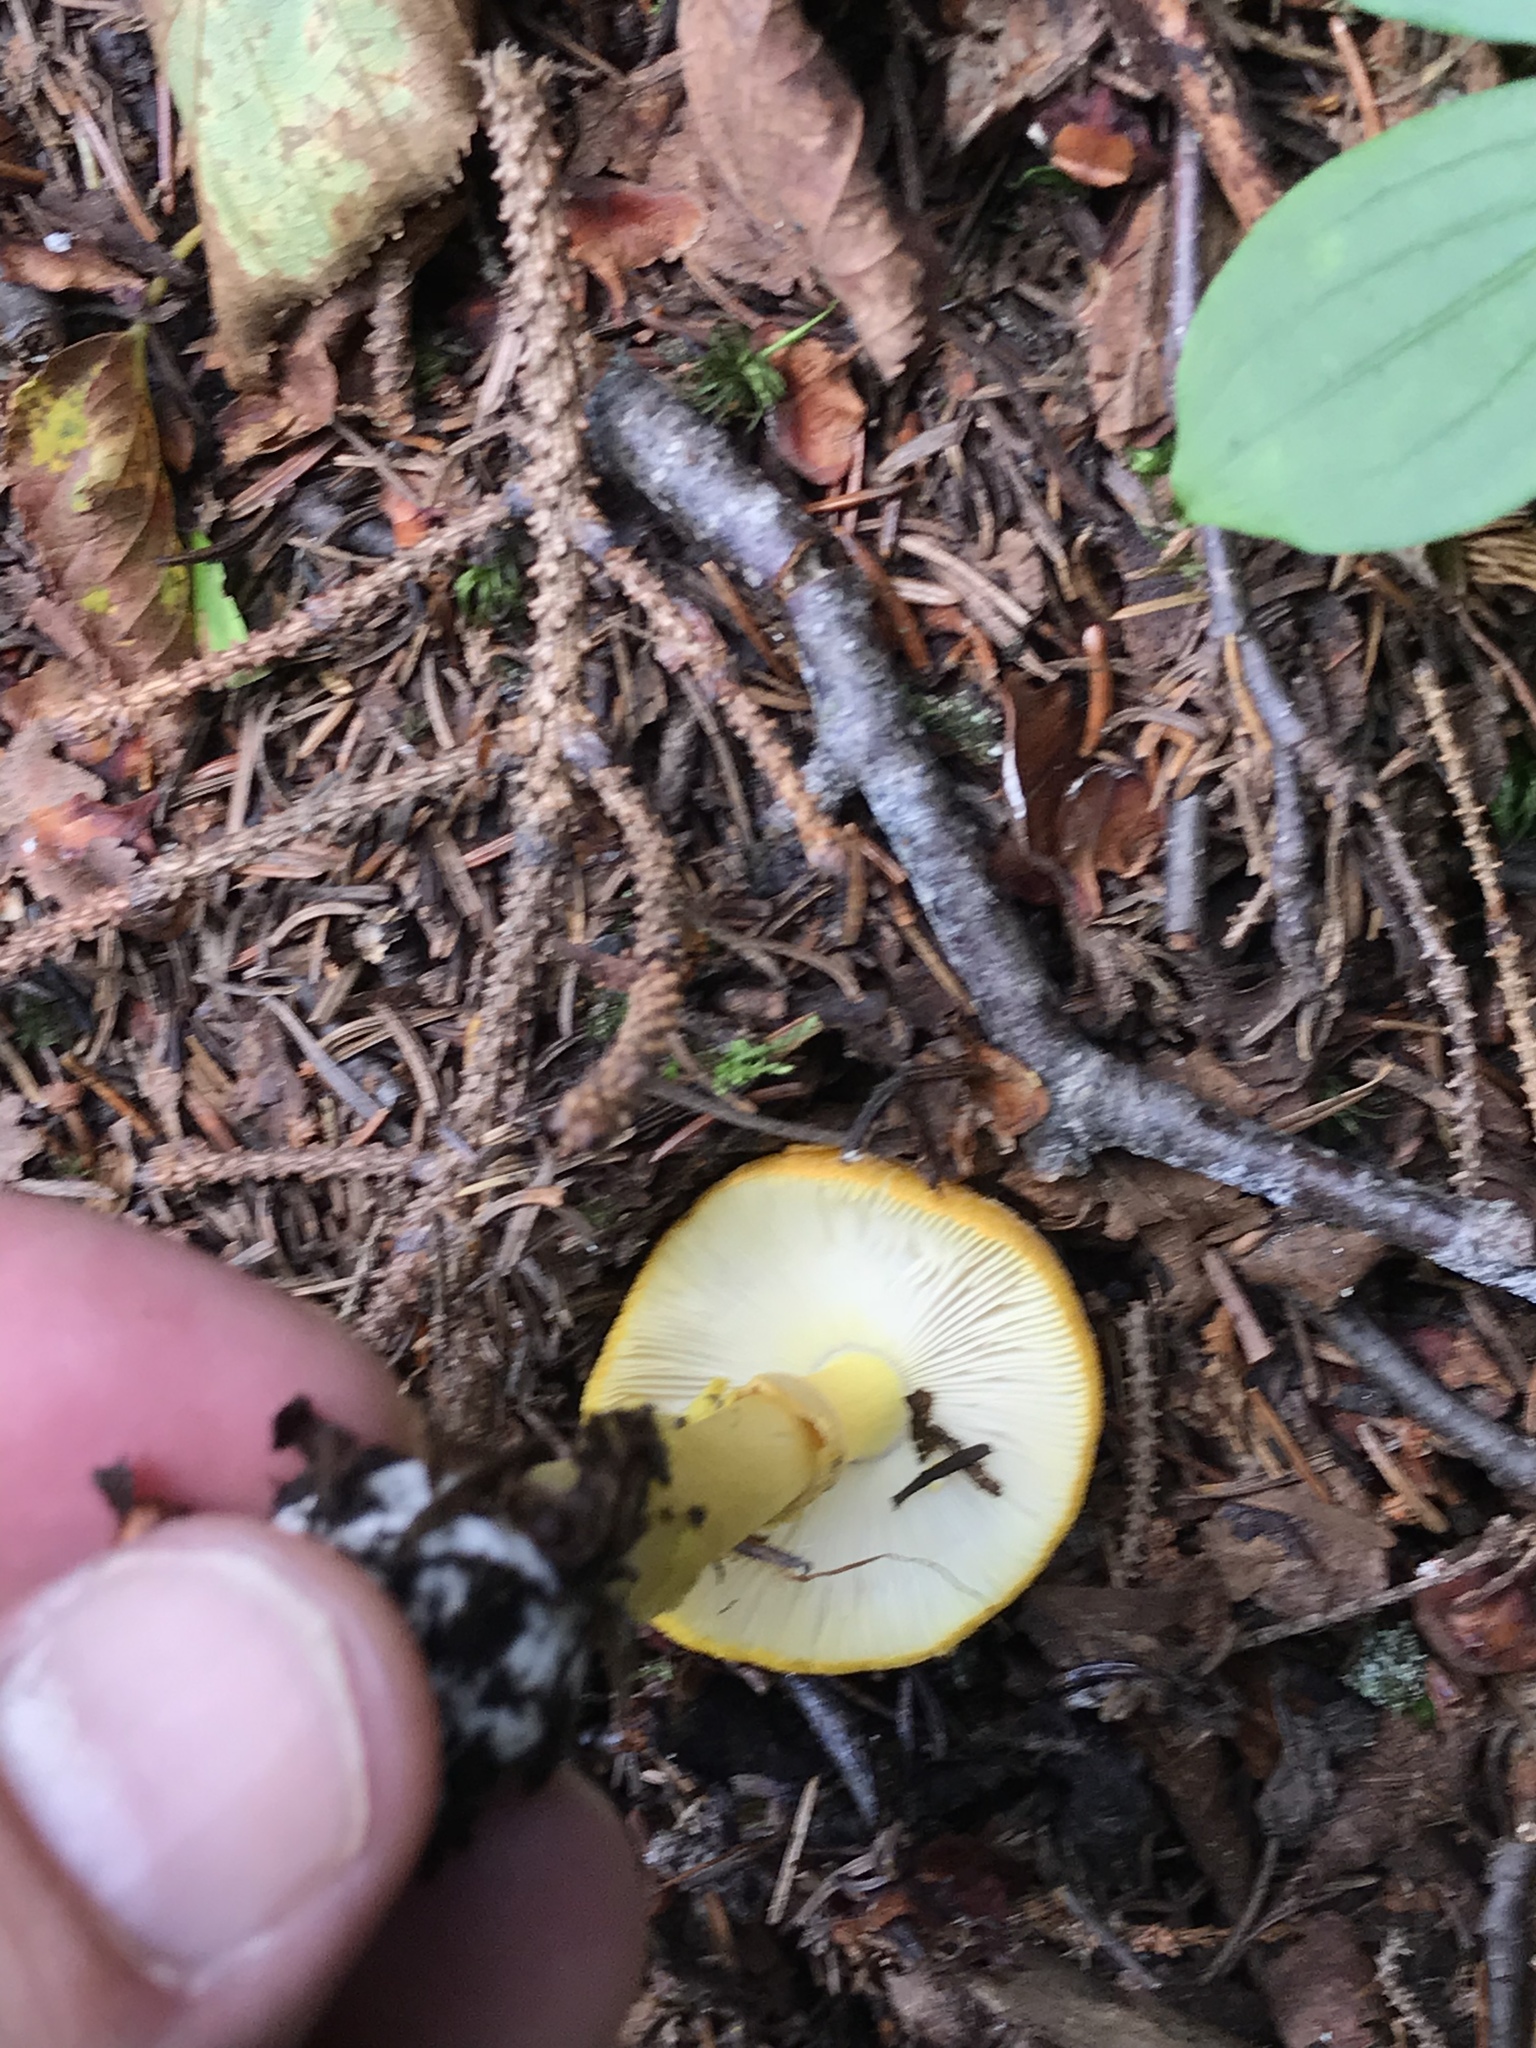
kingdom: Fungi
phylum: Basidiomycota
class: Agaricomycetes
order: Agaricales
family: Amanitaceae
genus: Amanita
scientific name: Amanita flavoconia
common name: Yellow patches
